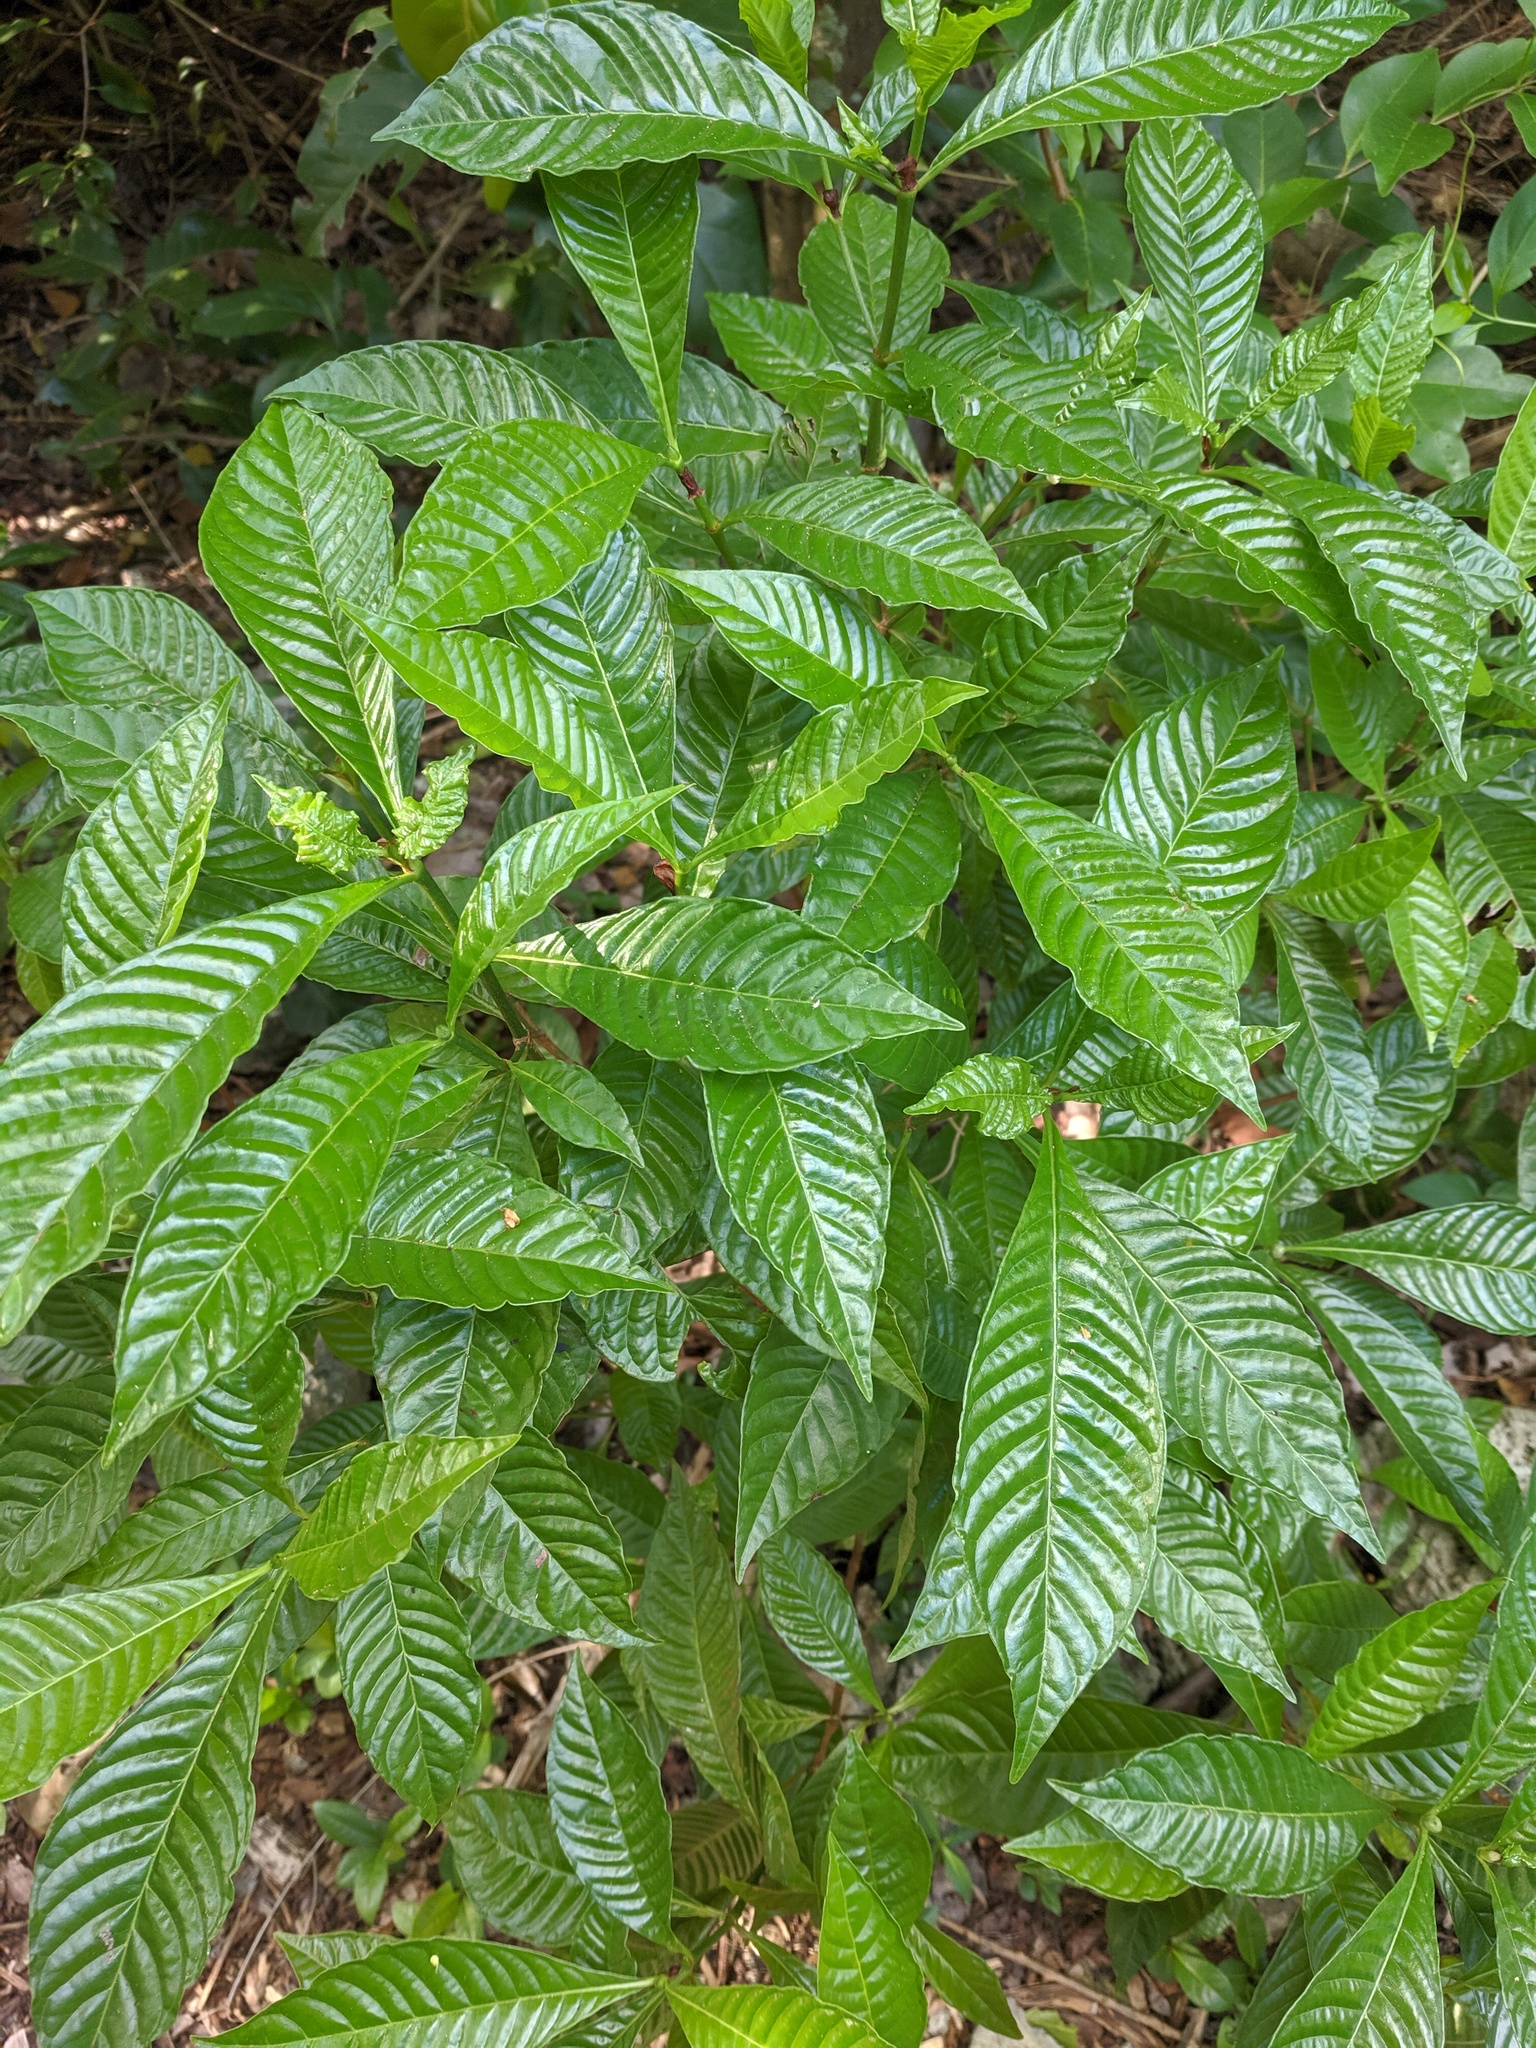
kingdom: Plantae
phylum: Tracheophyta
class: Magnoliopsida
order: Gentianales
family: Rubiaceae
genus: Psychotria
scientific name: Psychotria nervosa
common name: Bastard cankerberry
